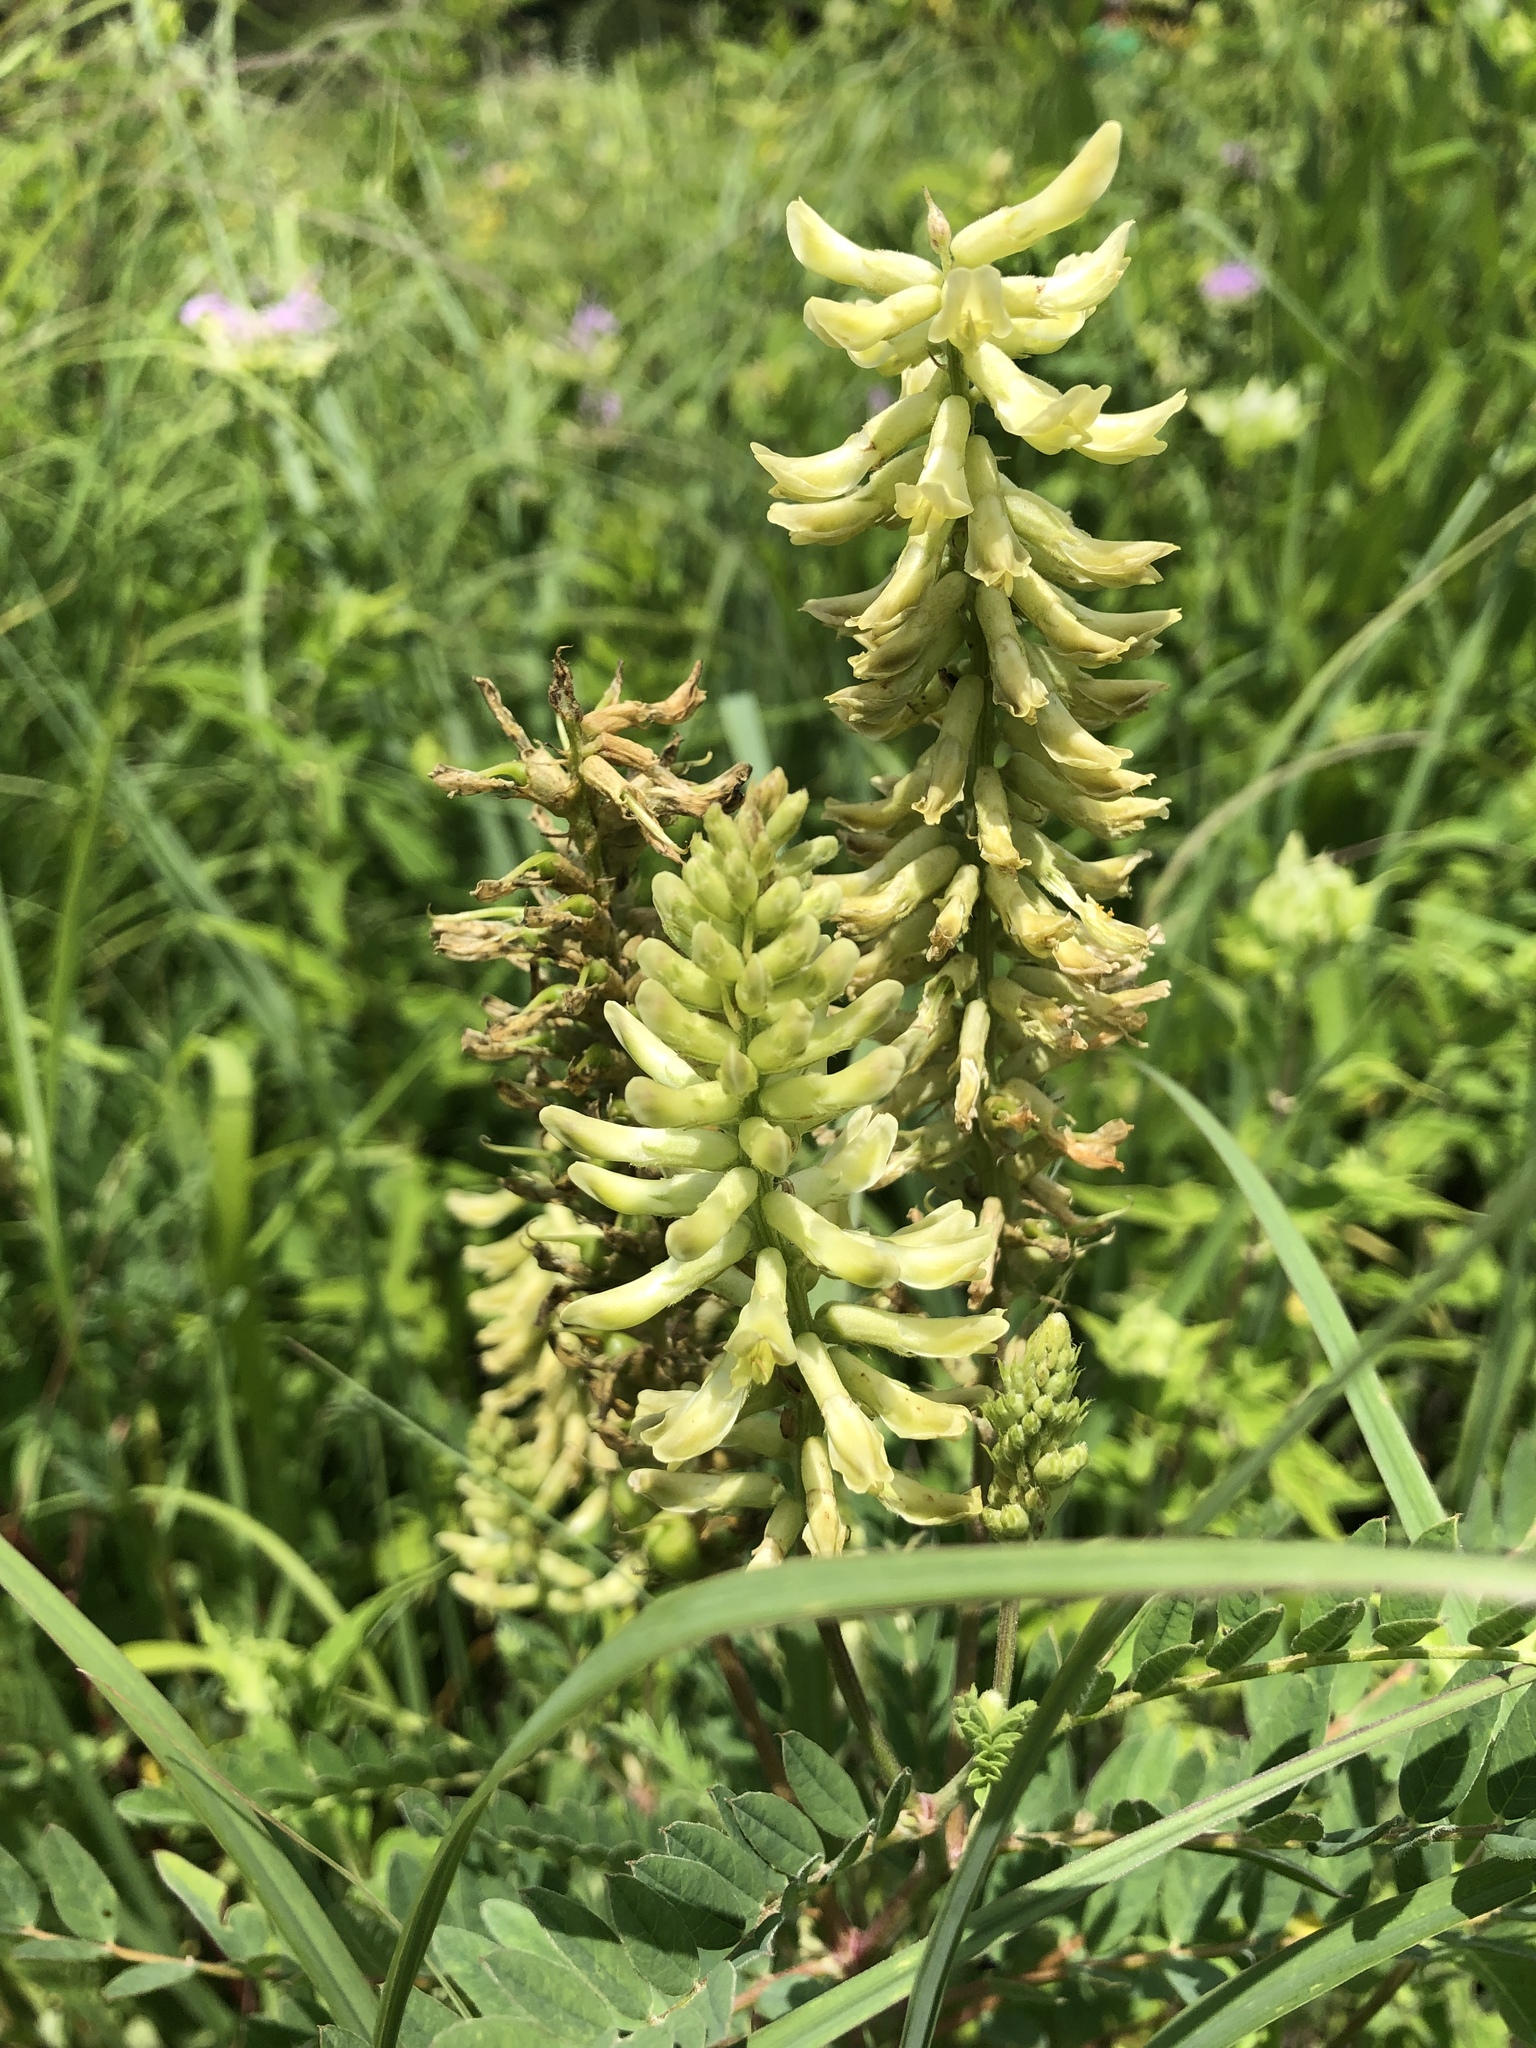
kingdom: Plantae
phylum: Tracheophyta
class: Magnoliopsida
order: Fabales
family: Fabaceae
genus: Astragalus
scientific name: Astragalus canadensis
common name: Canada milk-vetch
